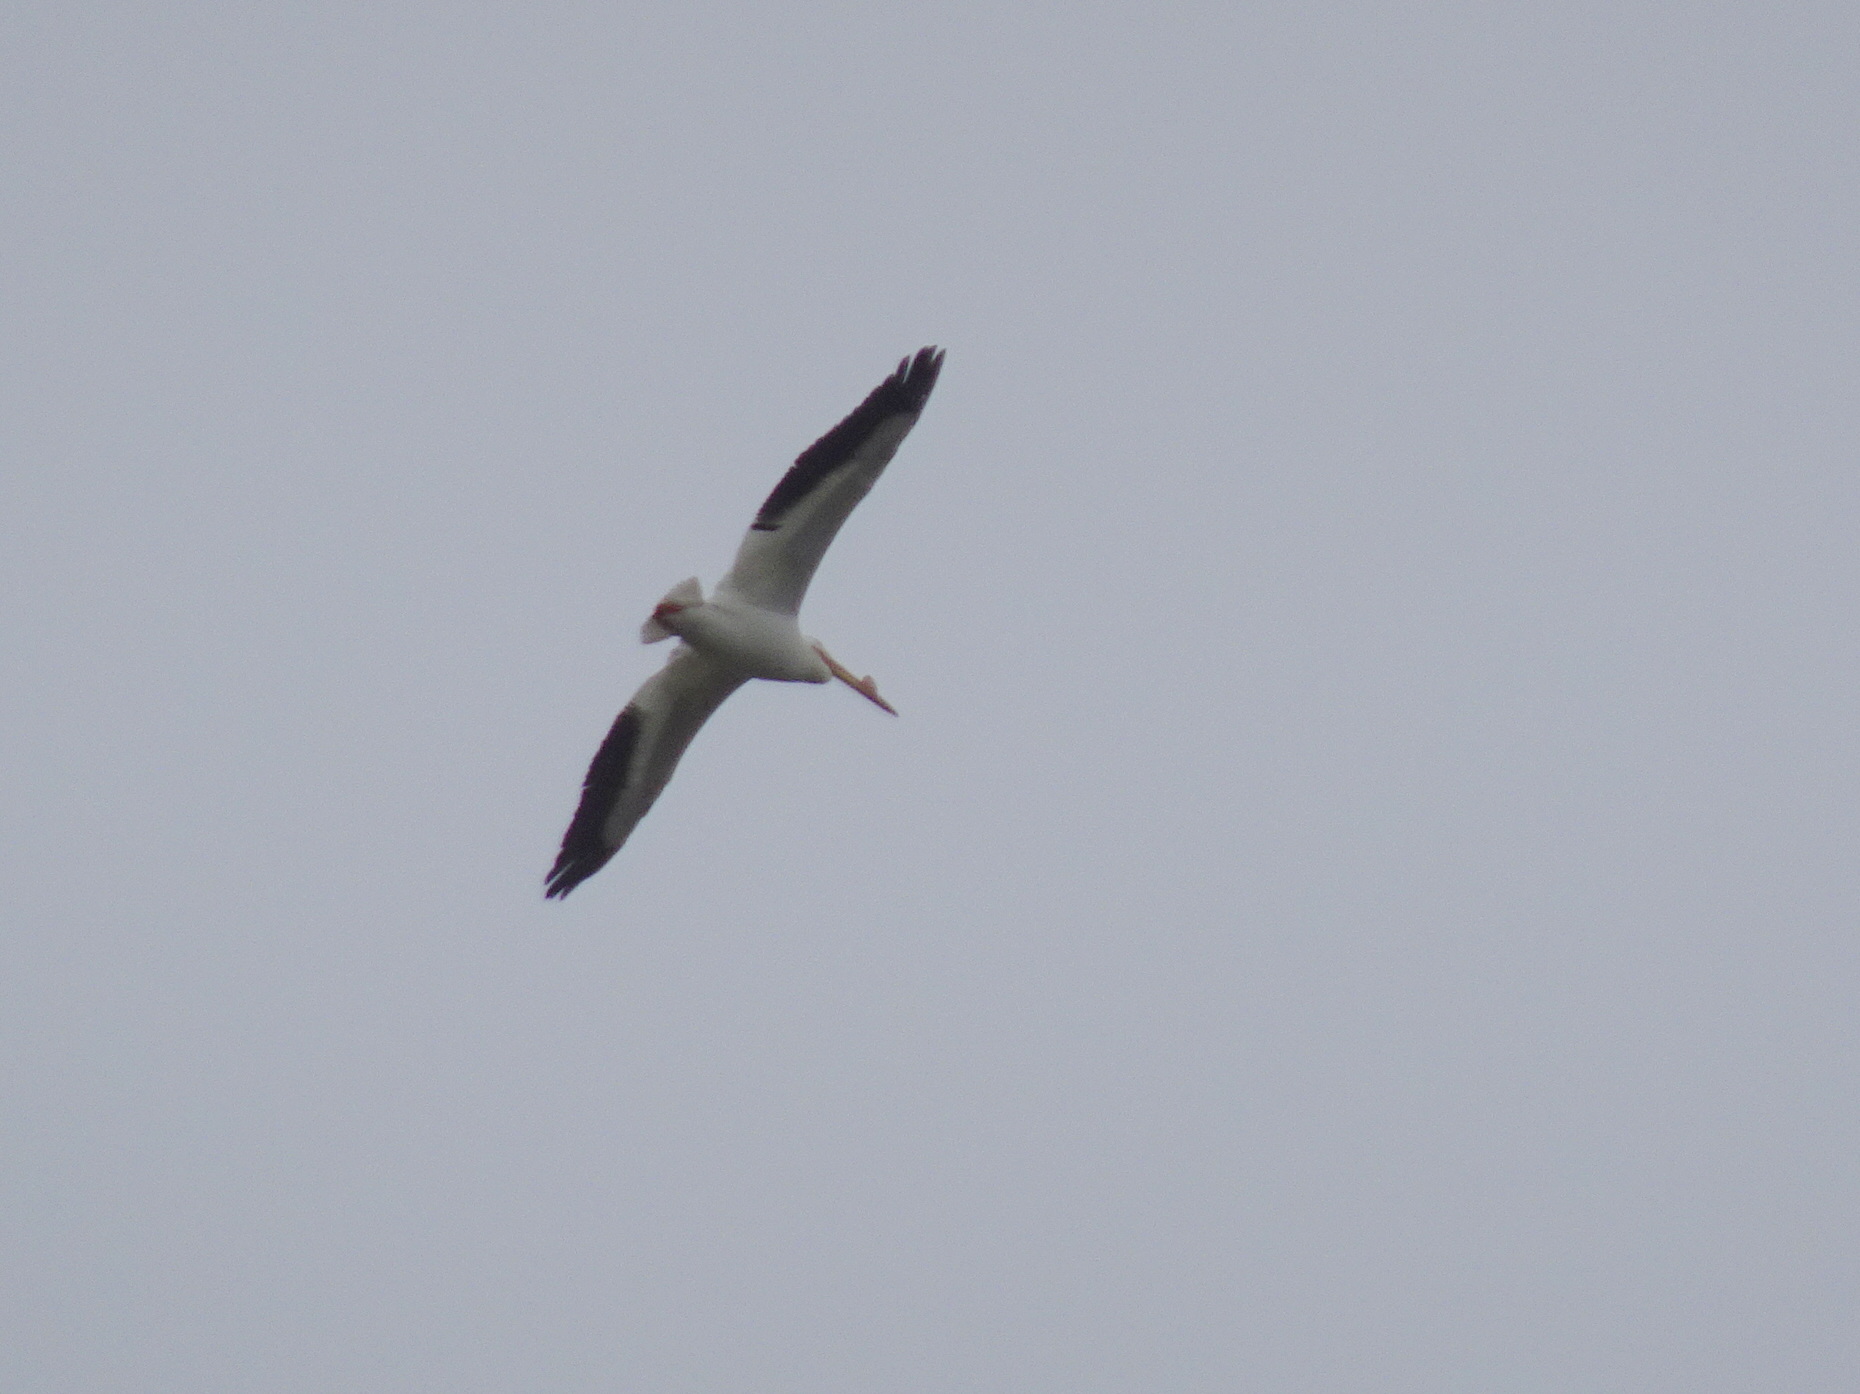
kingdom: Animalia
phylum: Chordata
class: Aves
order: Pelecaniformes
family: Pelecanidae
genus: Pelecanus
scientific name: Pelecanus erythrorhynchos
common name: American white pelican
